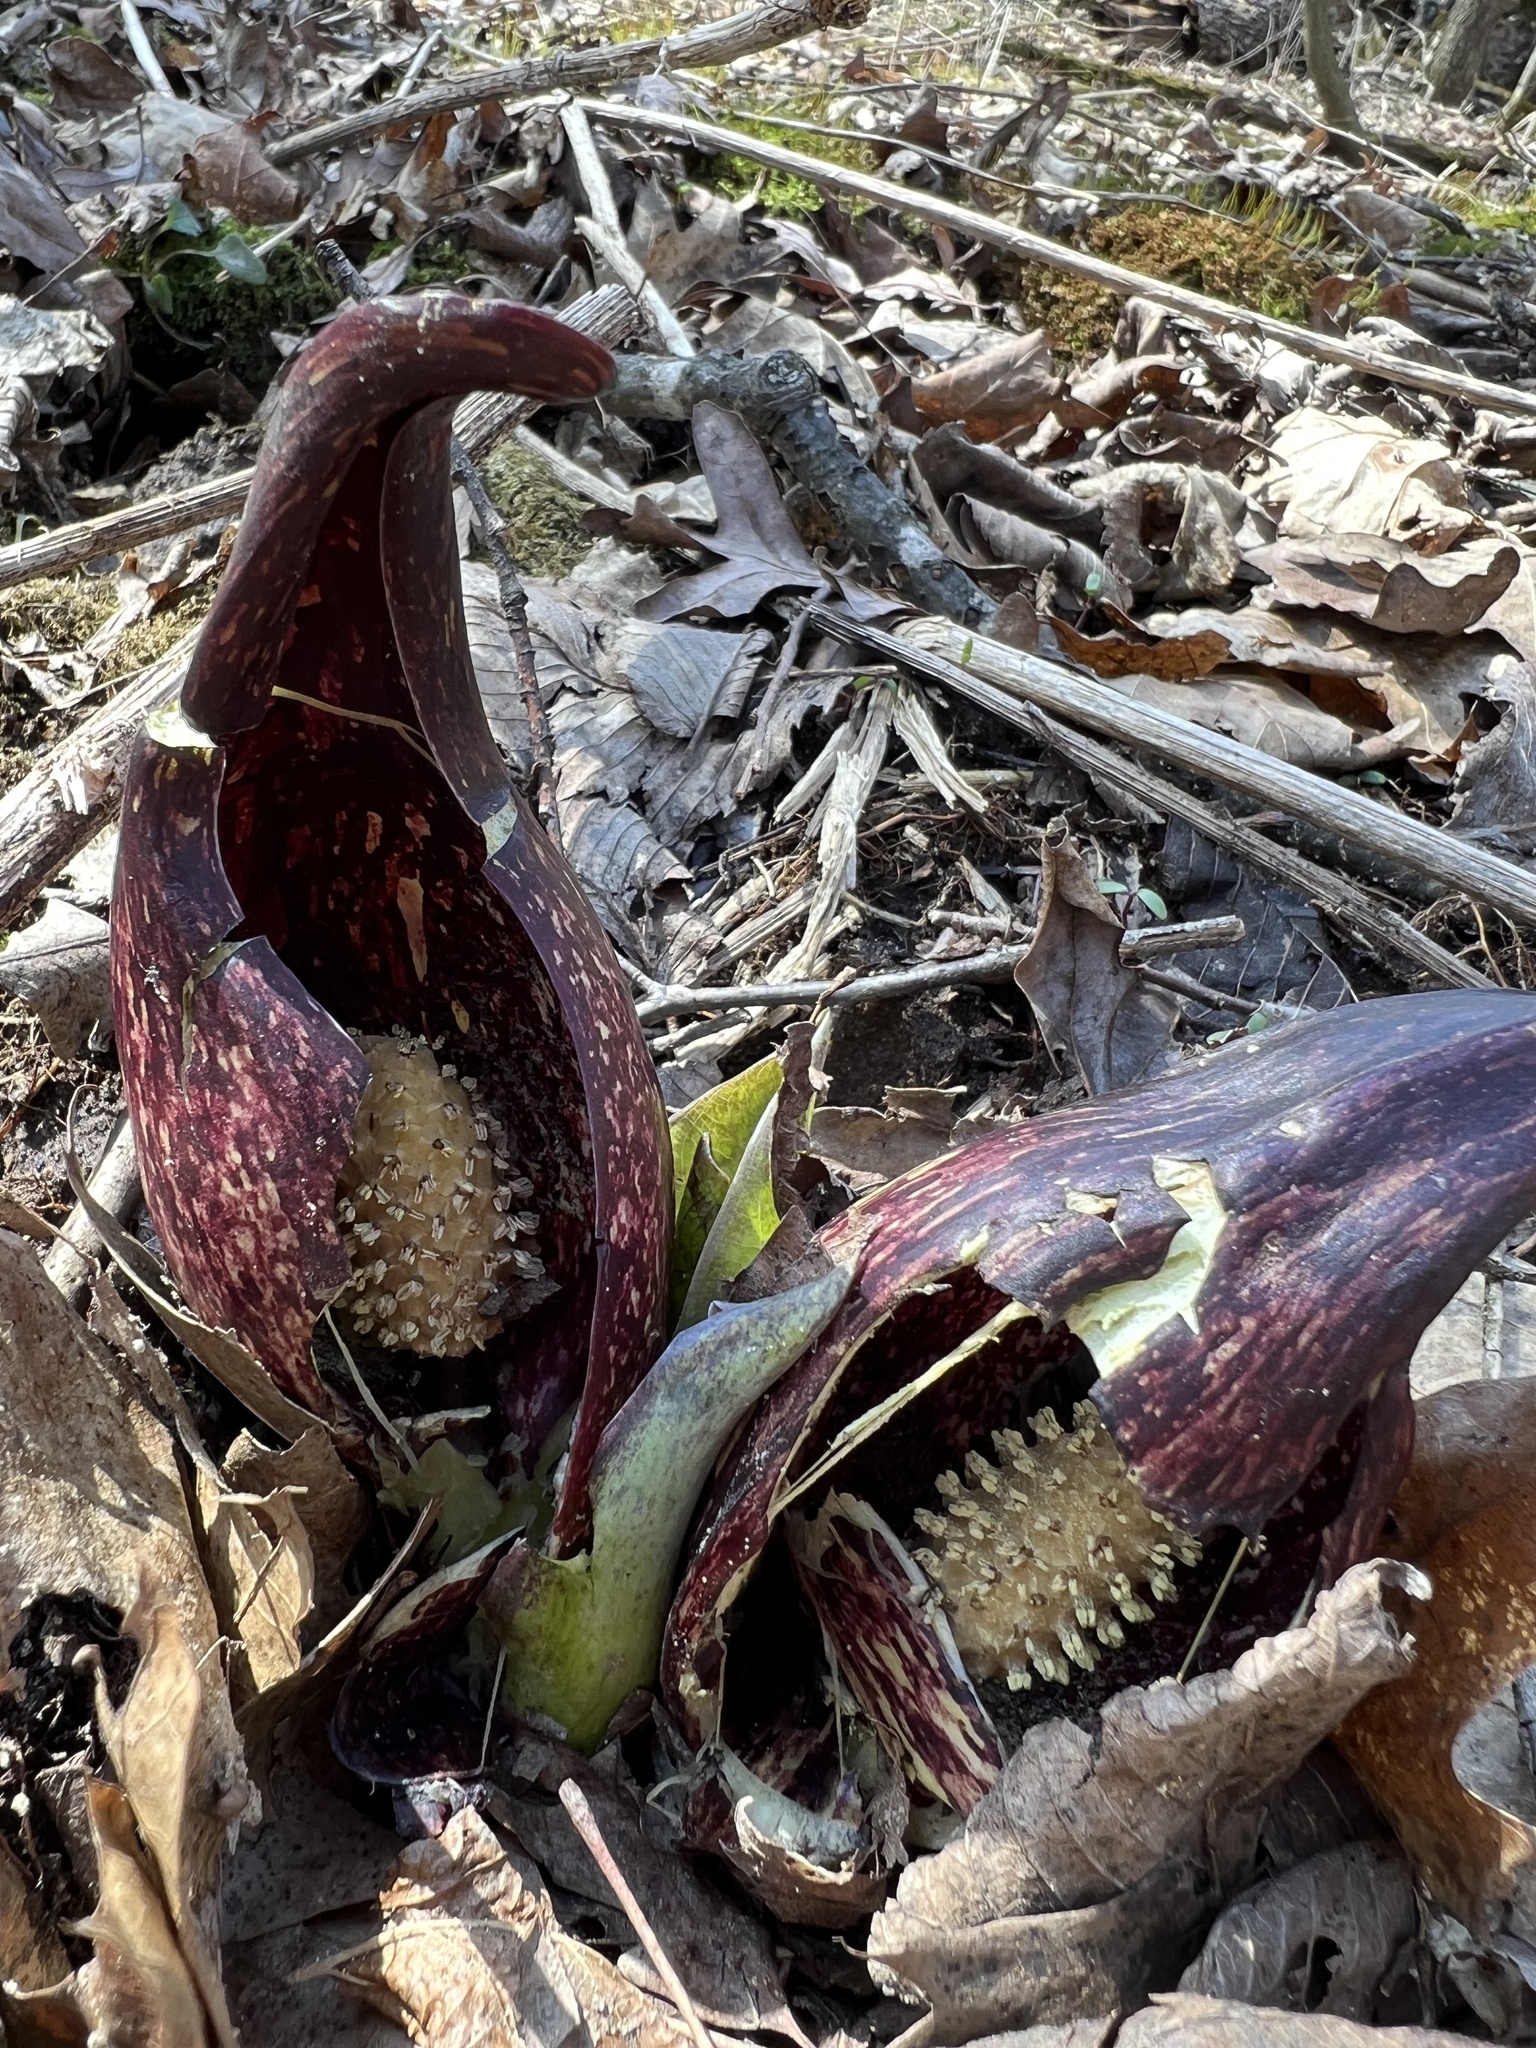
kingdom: Plantae
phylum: Tracheophyta
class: Liliopsida
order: Alismatales
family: Araceae
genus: Symplocarpus
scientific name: Symplocarpus foetidus
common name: Eastern skunk cabbage
